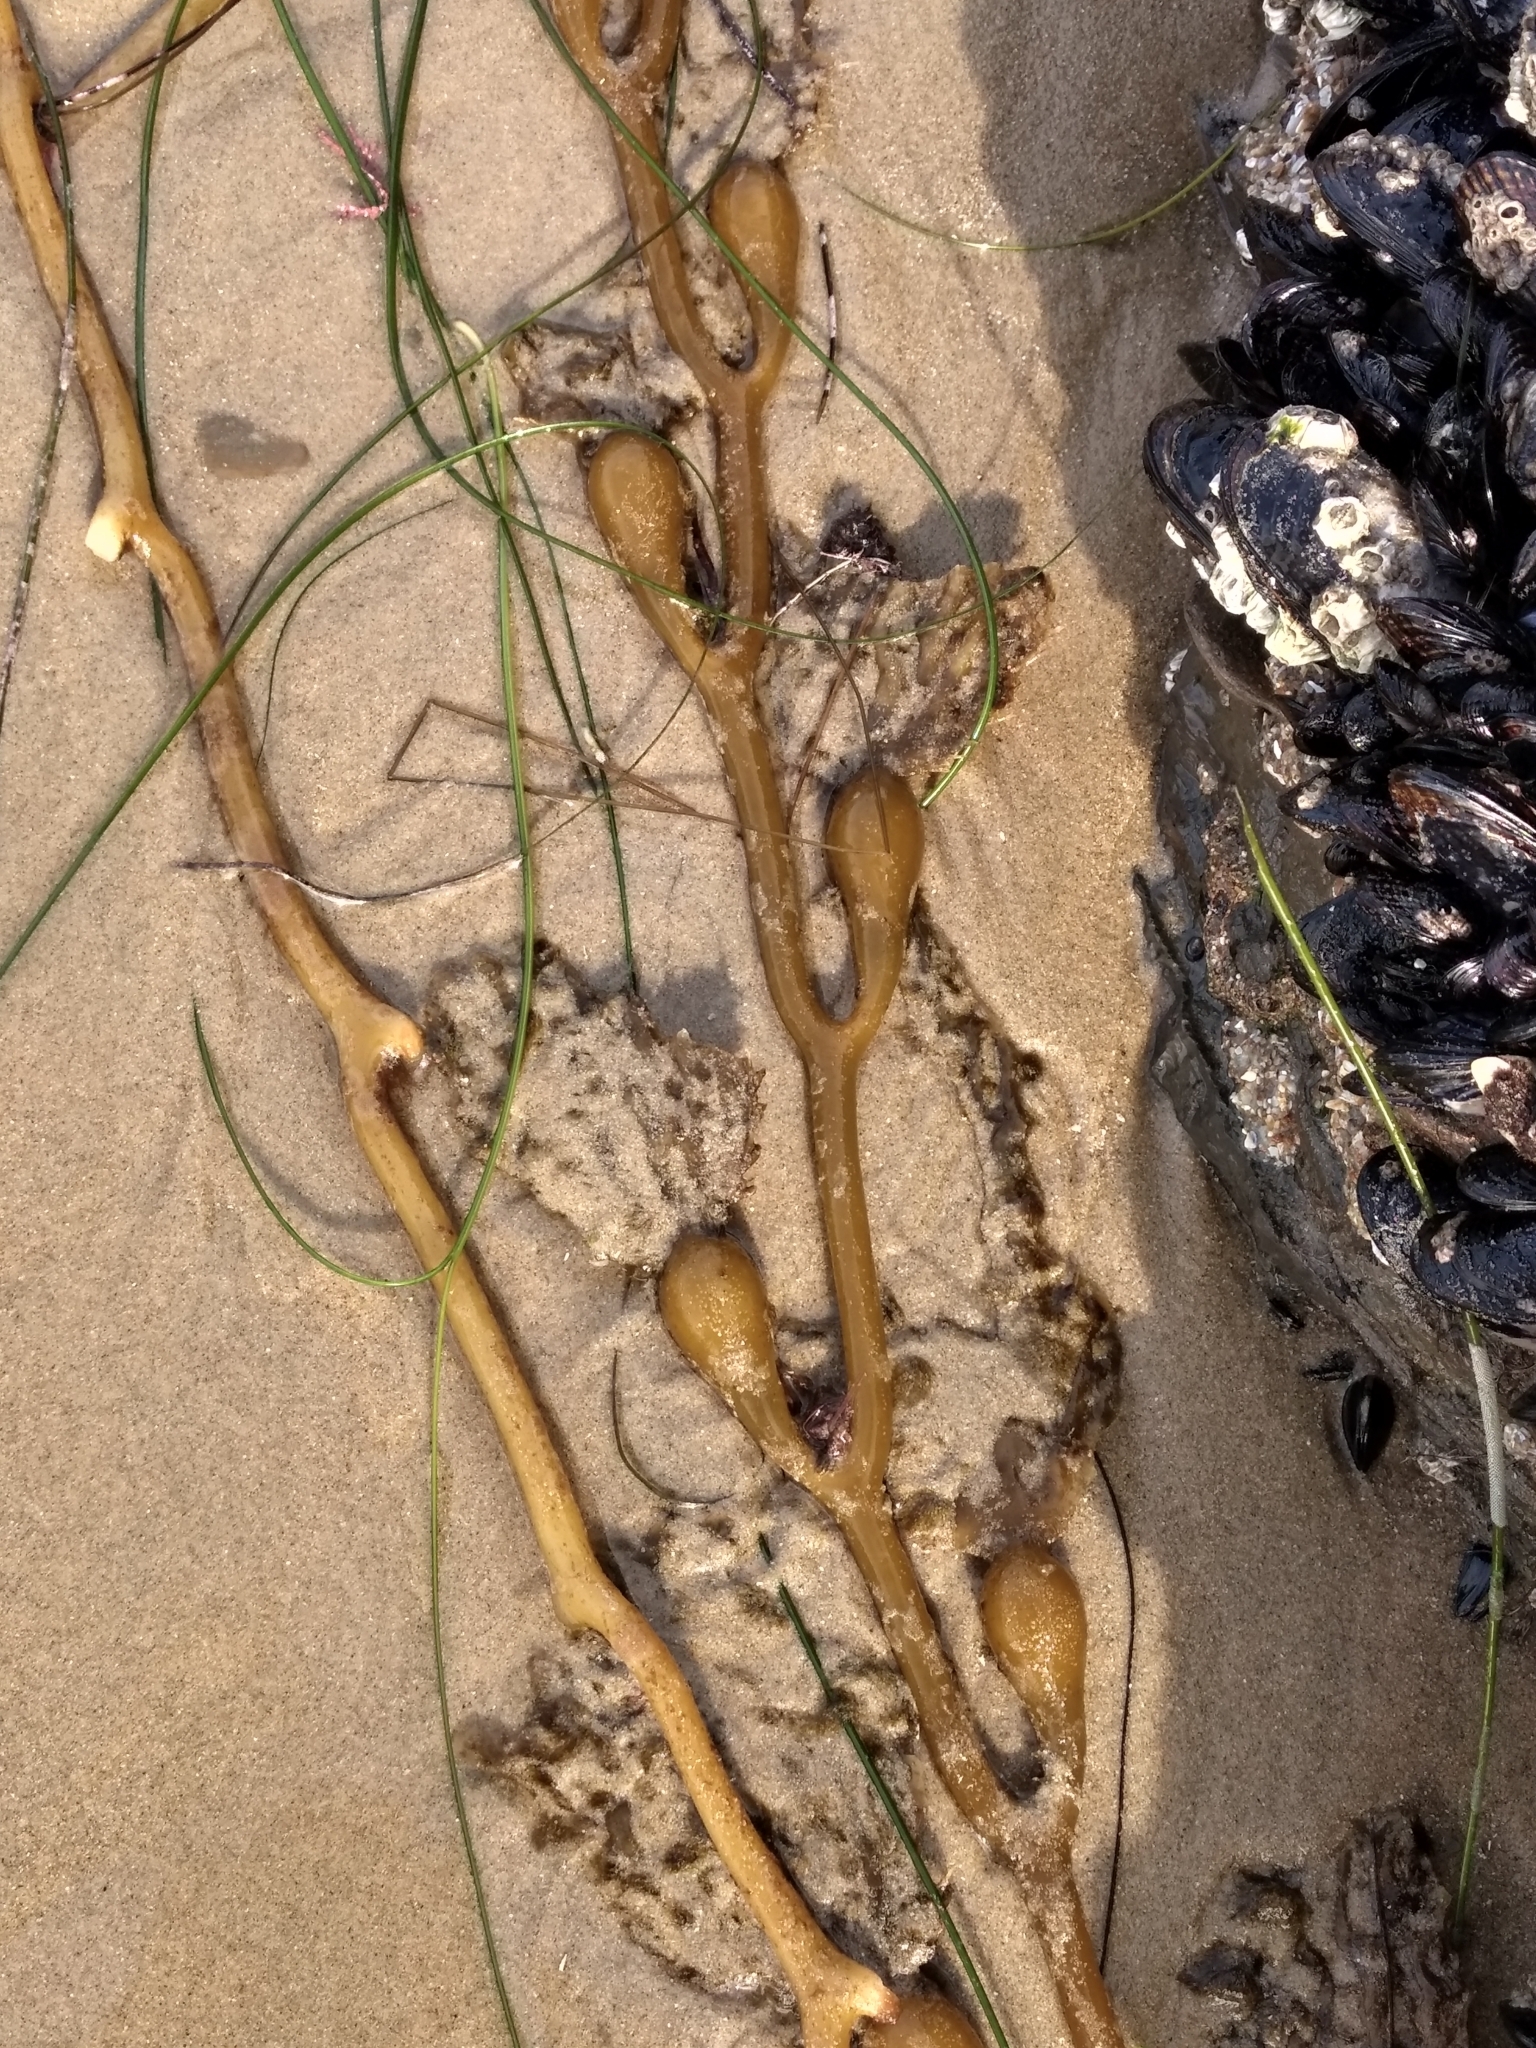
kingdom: Chromista
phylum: Ochrophyta
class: Phaeophyceae
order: Laminariales
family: Laminariaceae
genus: Macrocystis
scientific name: Macrocystis pyrifera
